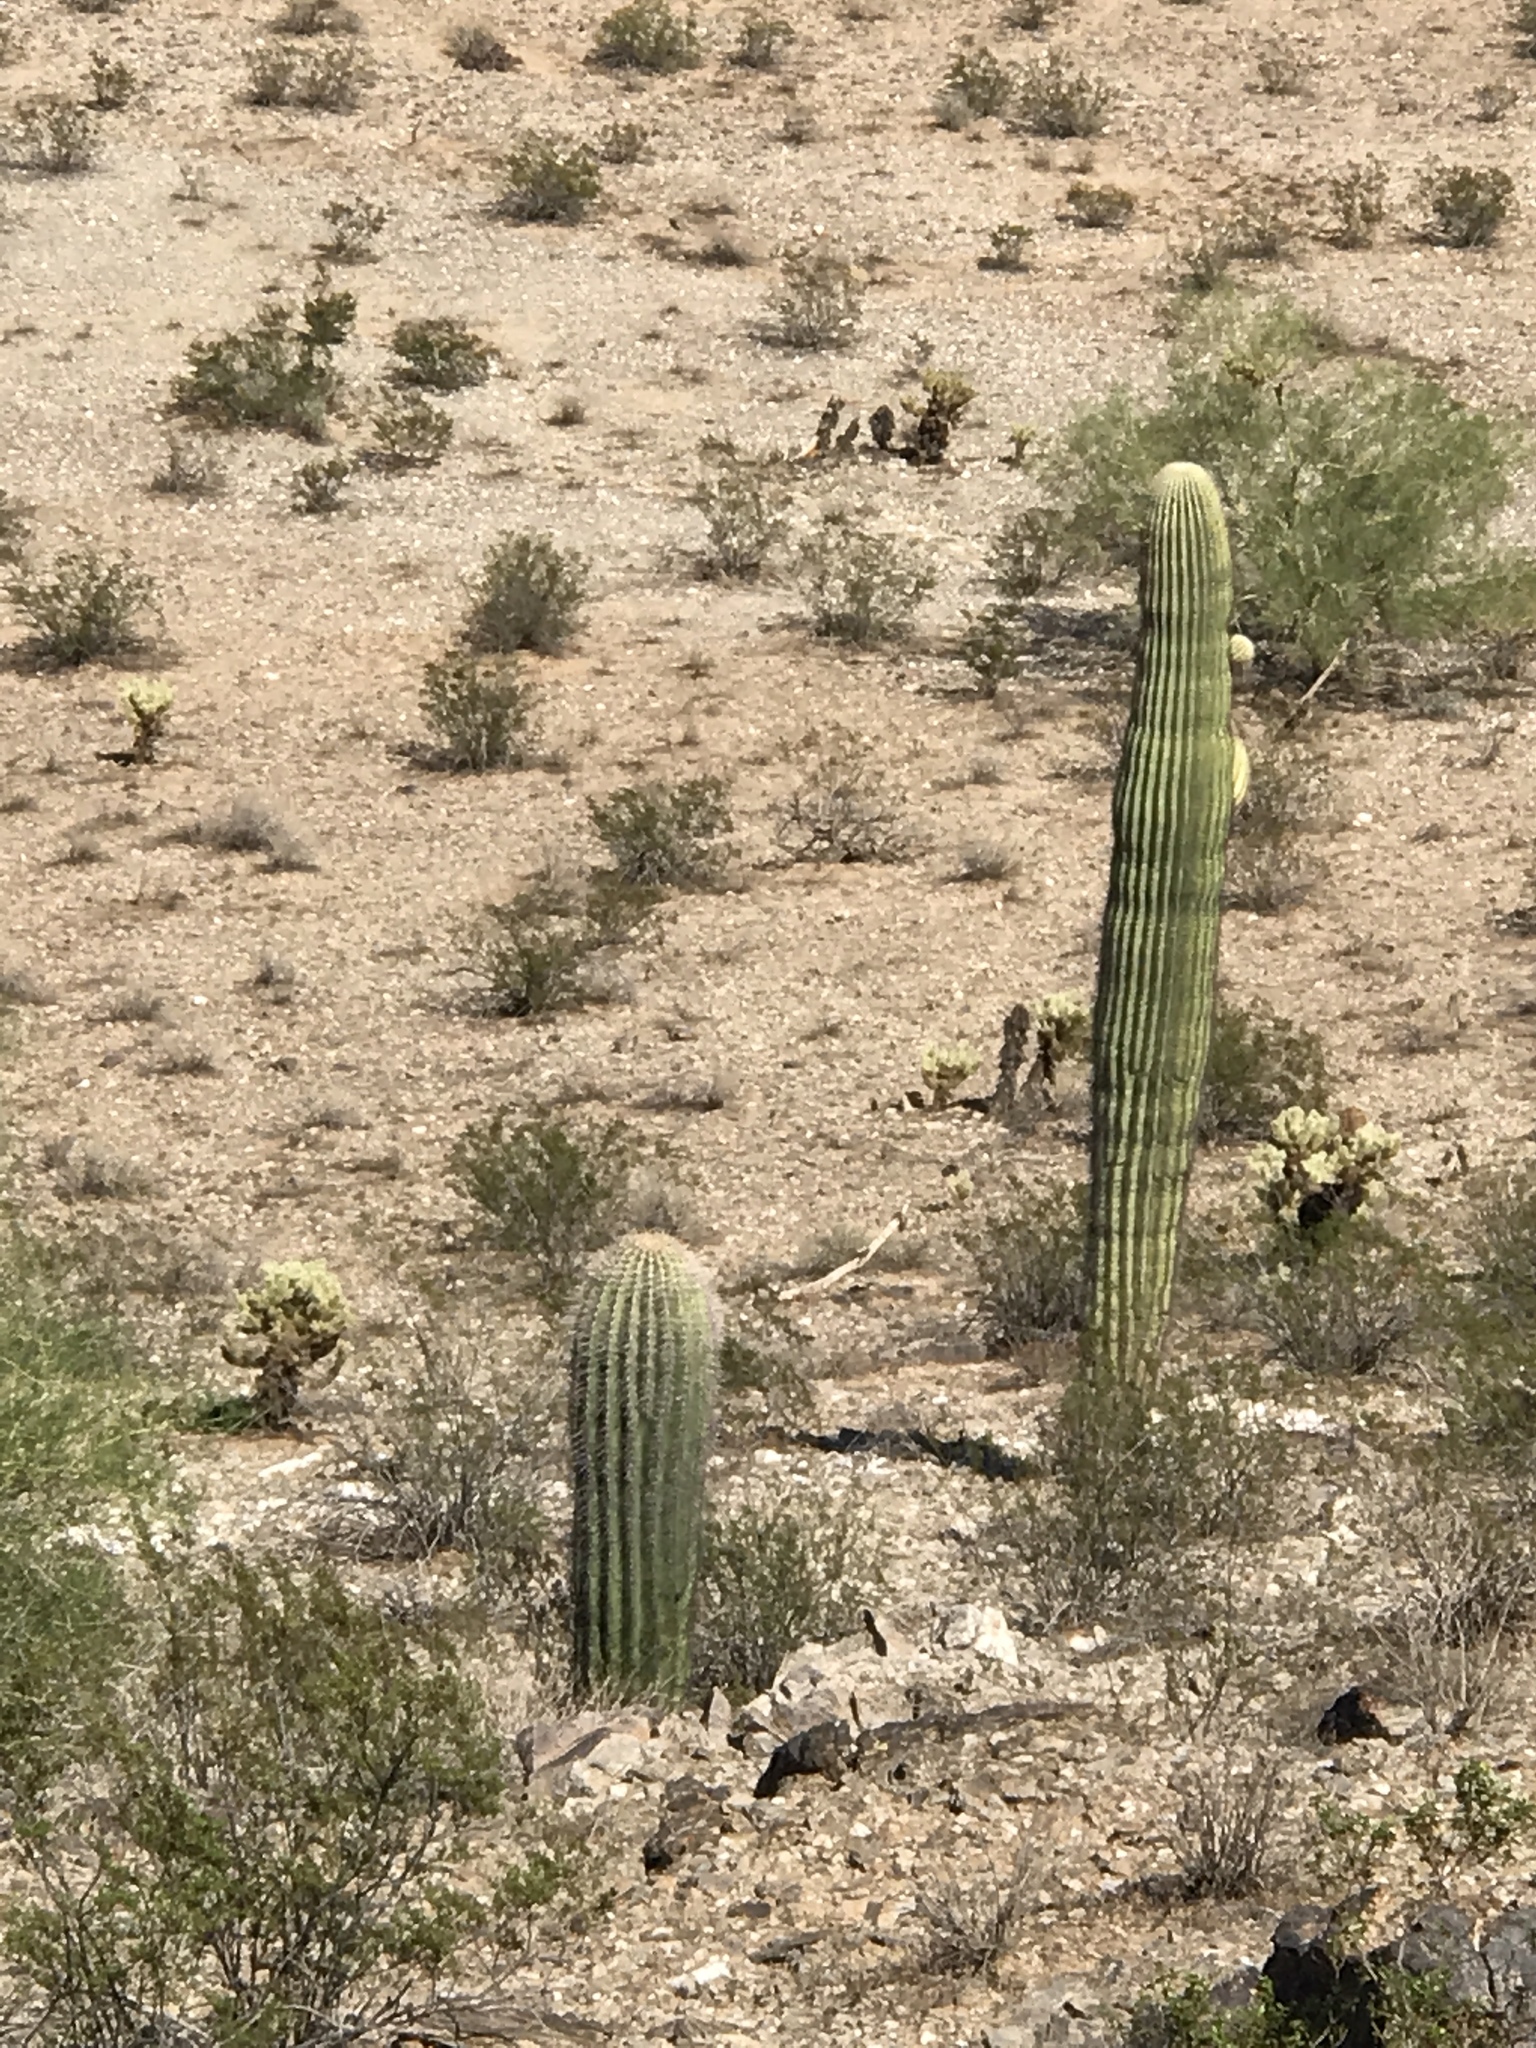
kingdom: Plantae
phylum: Tracheophyta
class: Magnoliopsida
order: Caryophyllales
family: Cactaceae
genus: Carnegiea
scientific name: Carnegiea gigantea
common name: Saguaro
